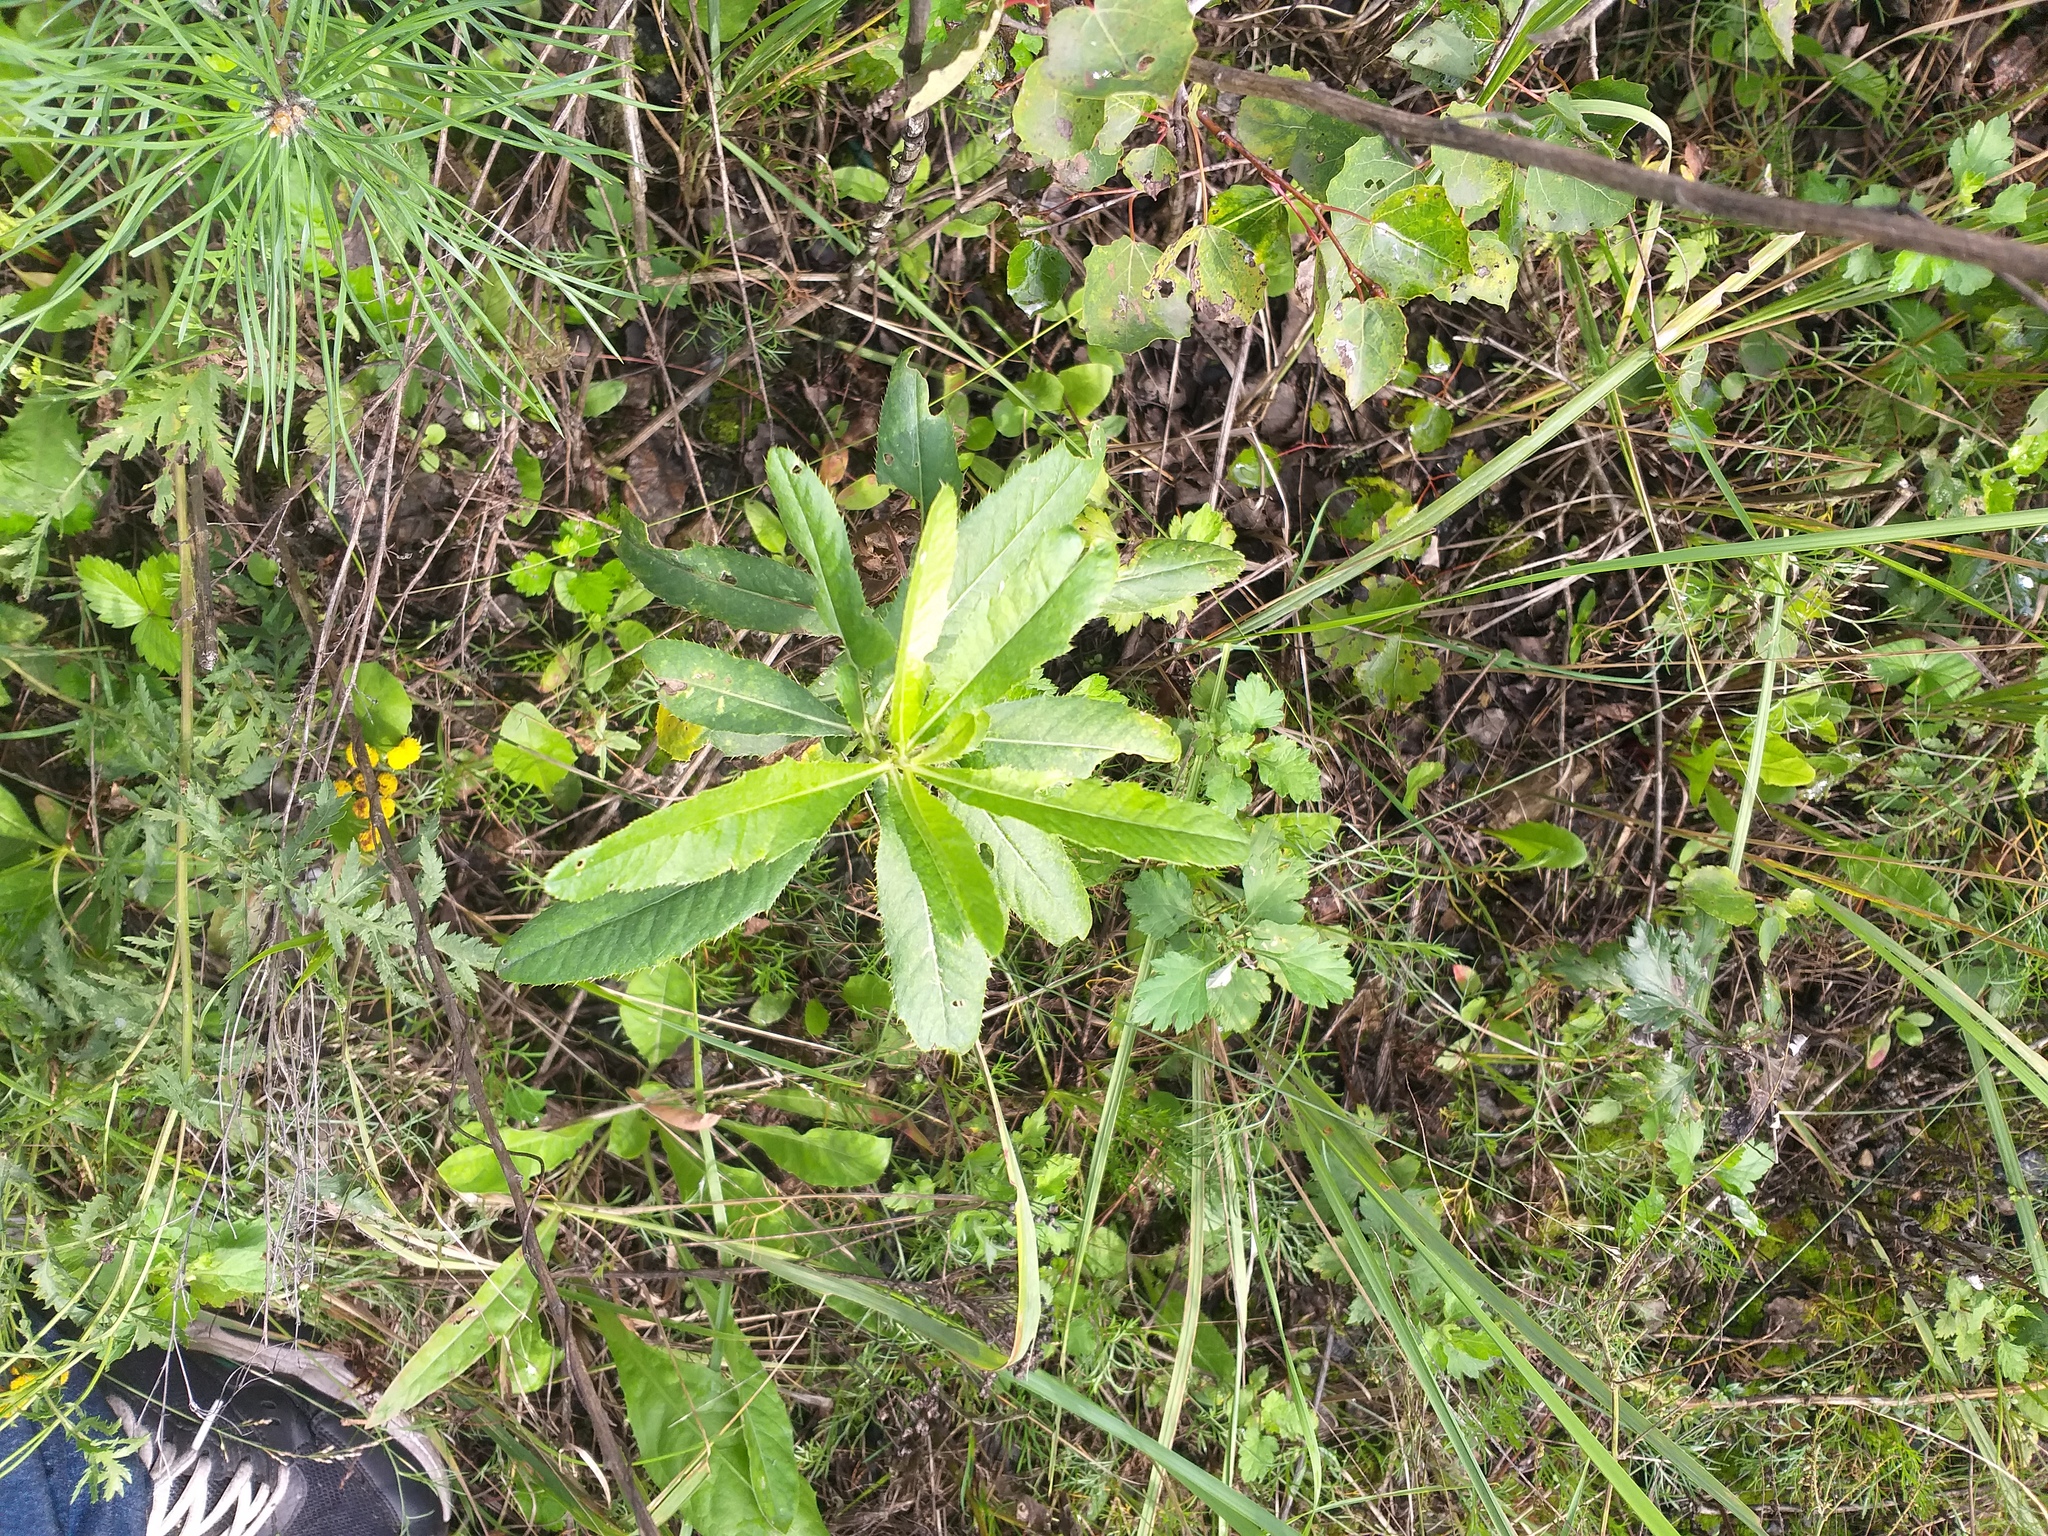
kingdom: Plantae
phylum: Tracheophyta
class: Magnoliopsida
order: Asterales
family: Asteraceae
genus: Cirsium
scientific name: Cirsium arvense
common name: Creeping thistle
